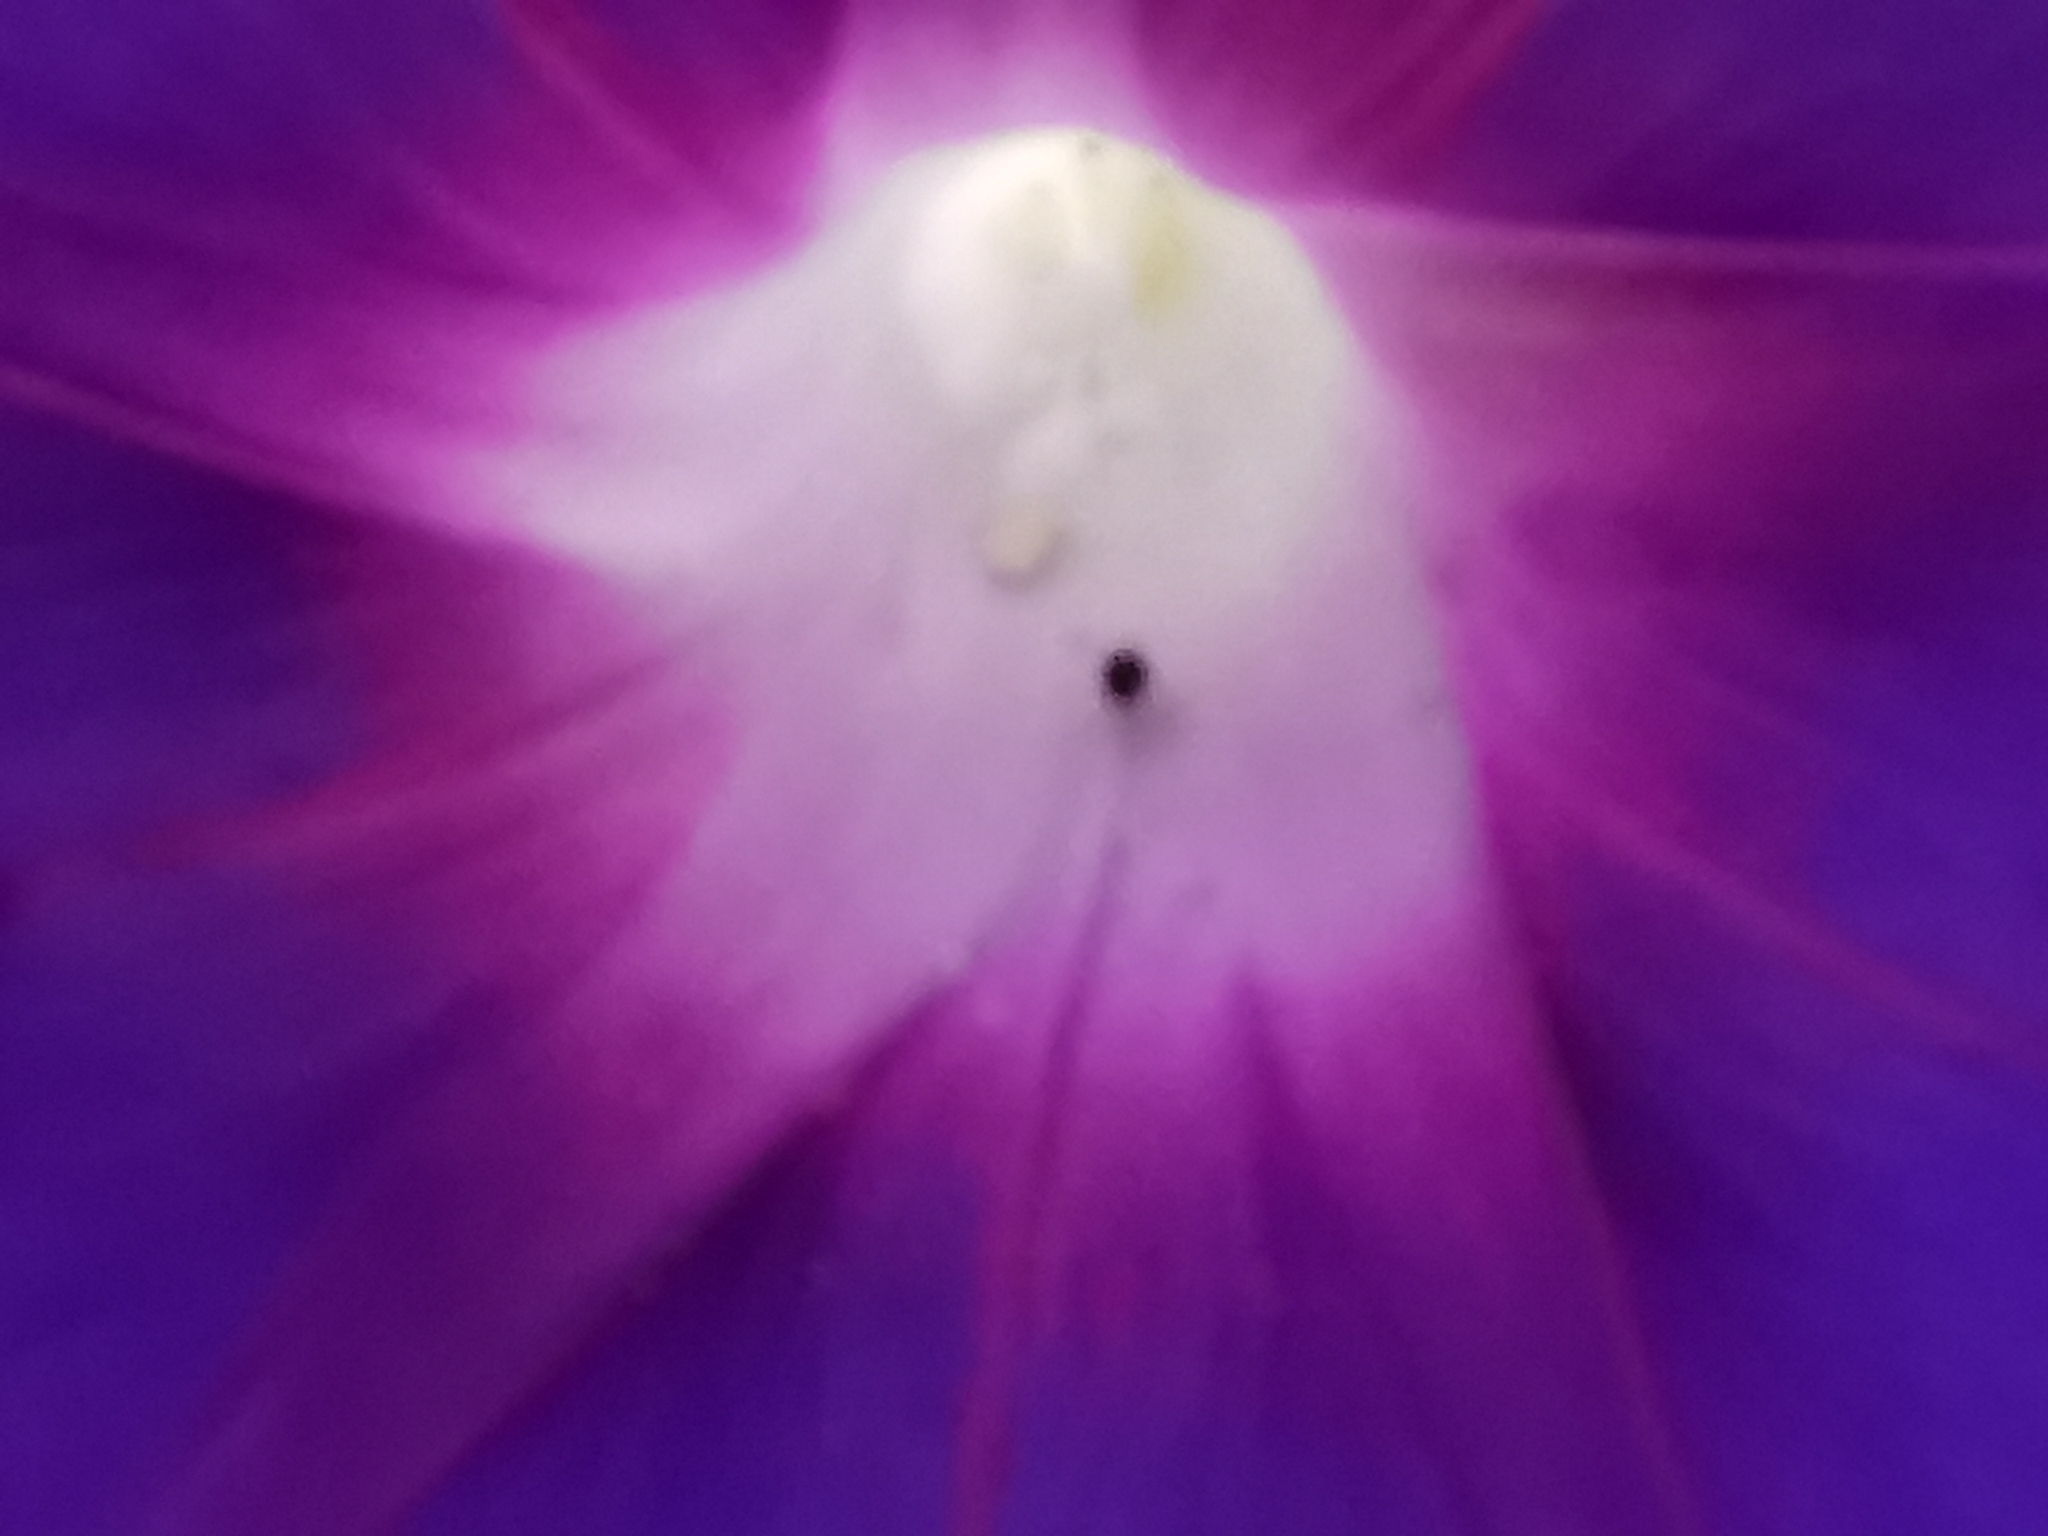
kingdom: Plantae
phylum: Tracheophyta
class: Magnoliopsida
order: Solanales
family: Convolvulaceae
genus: Ipomoea
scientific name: Ipomoea orizabensis
